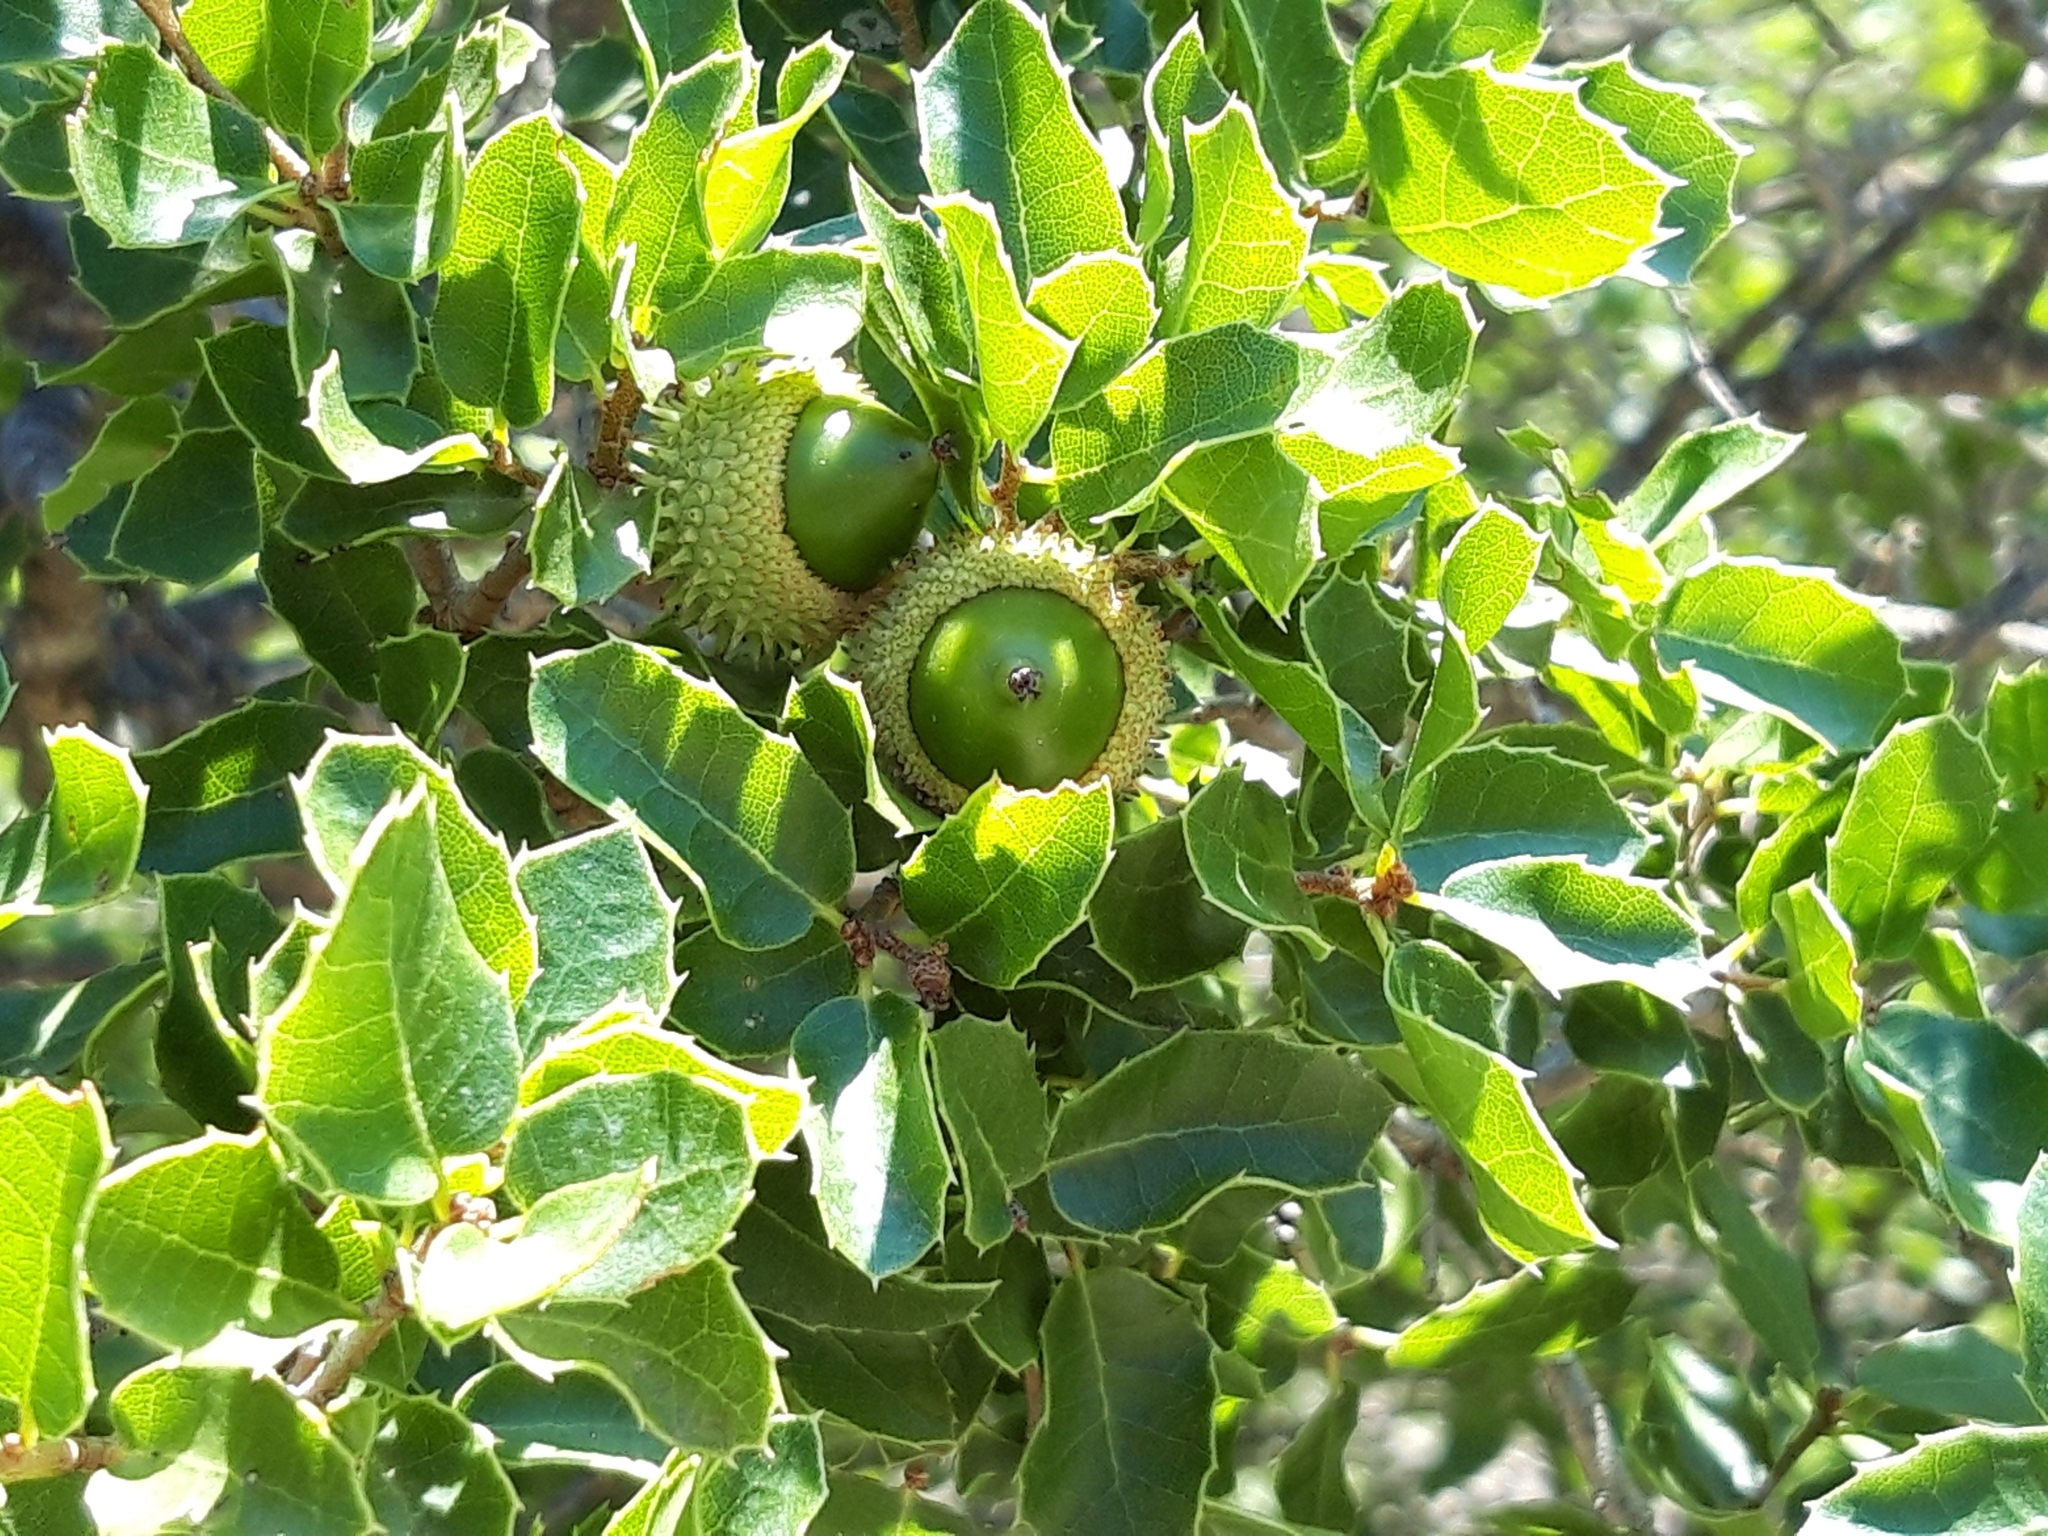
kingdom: Plantae
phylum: Tracheophyta
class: Magnoliopsida
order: Fagales
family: Fagaceae
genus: Quercus
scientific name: Quercus coccifera
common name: Kermes oak
